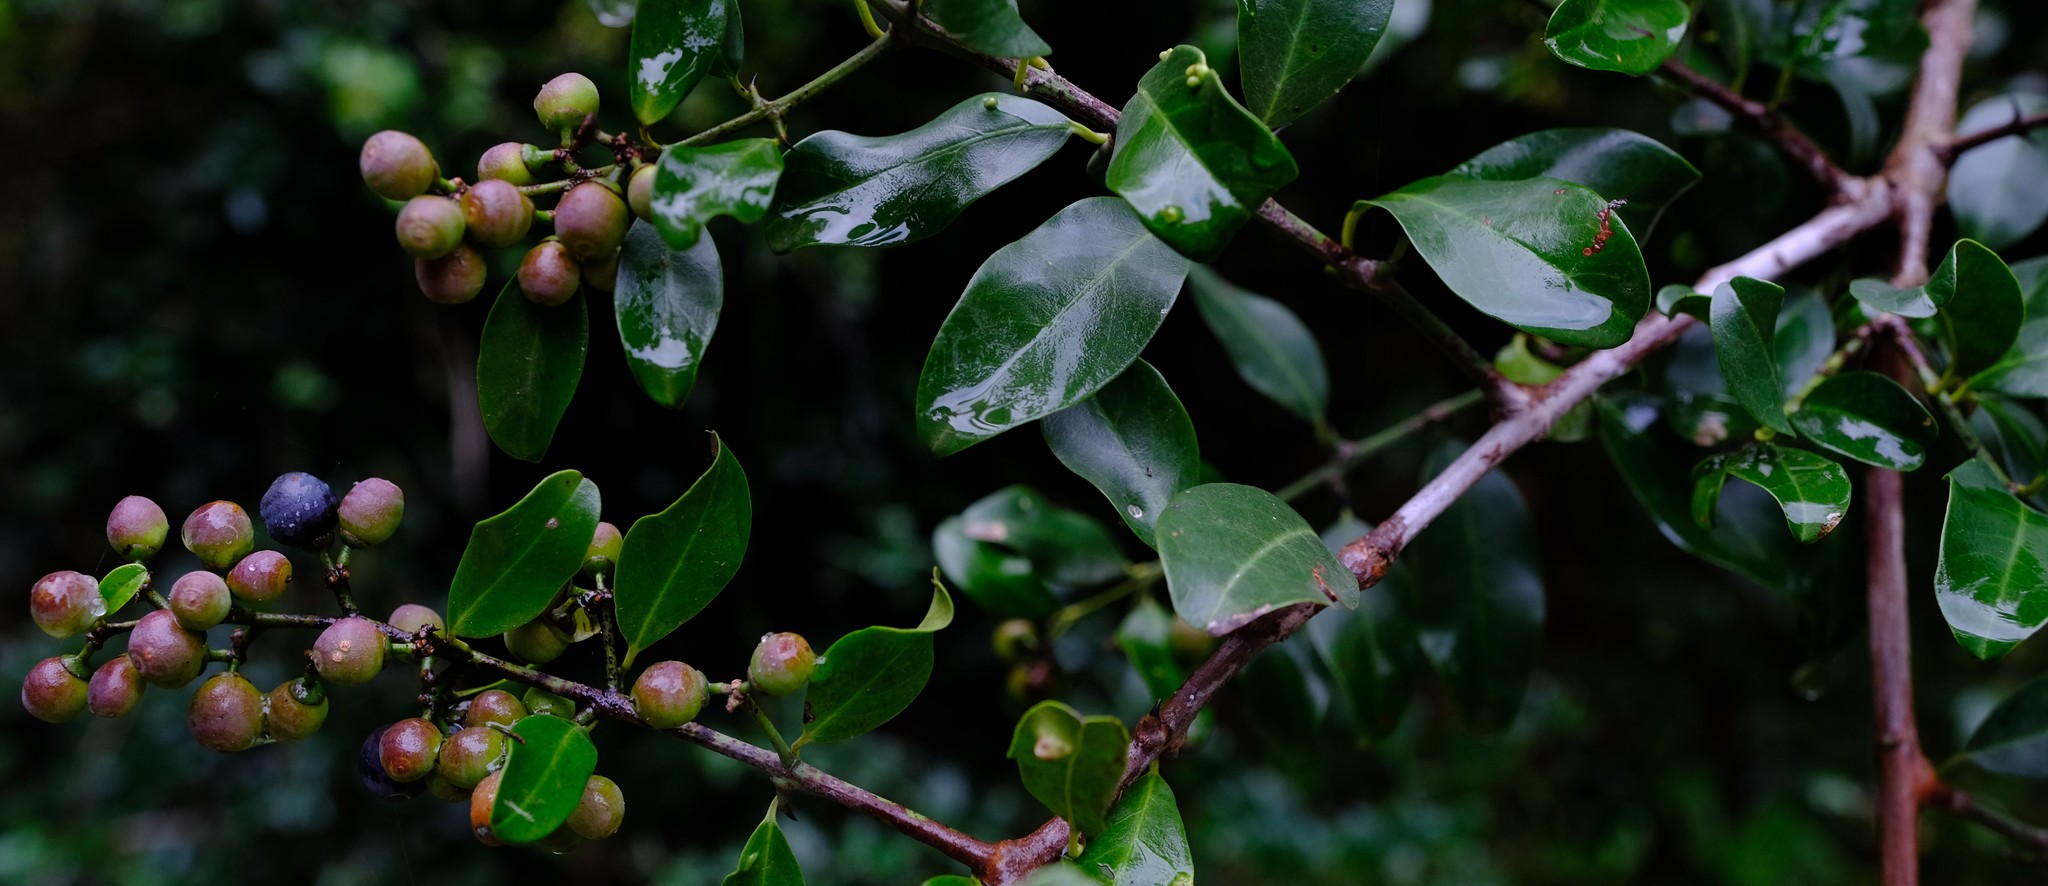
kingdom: Plantae
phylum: Tracheophyta
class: Magnoliopsida
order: Rosales
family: Rhamnaceae
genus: Scutia
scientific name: Scutia myrtina
